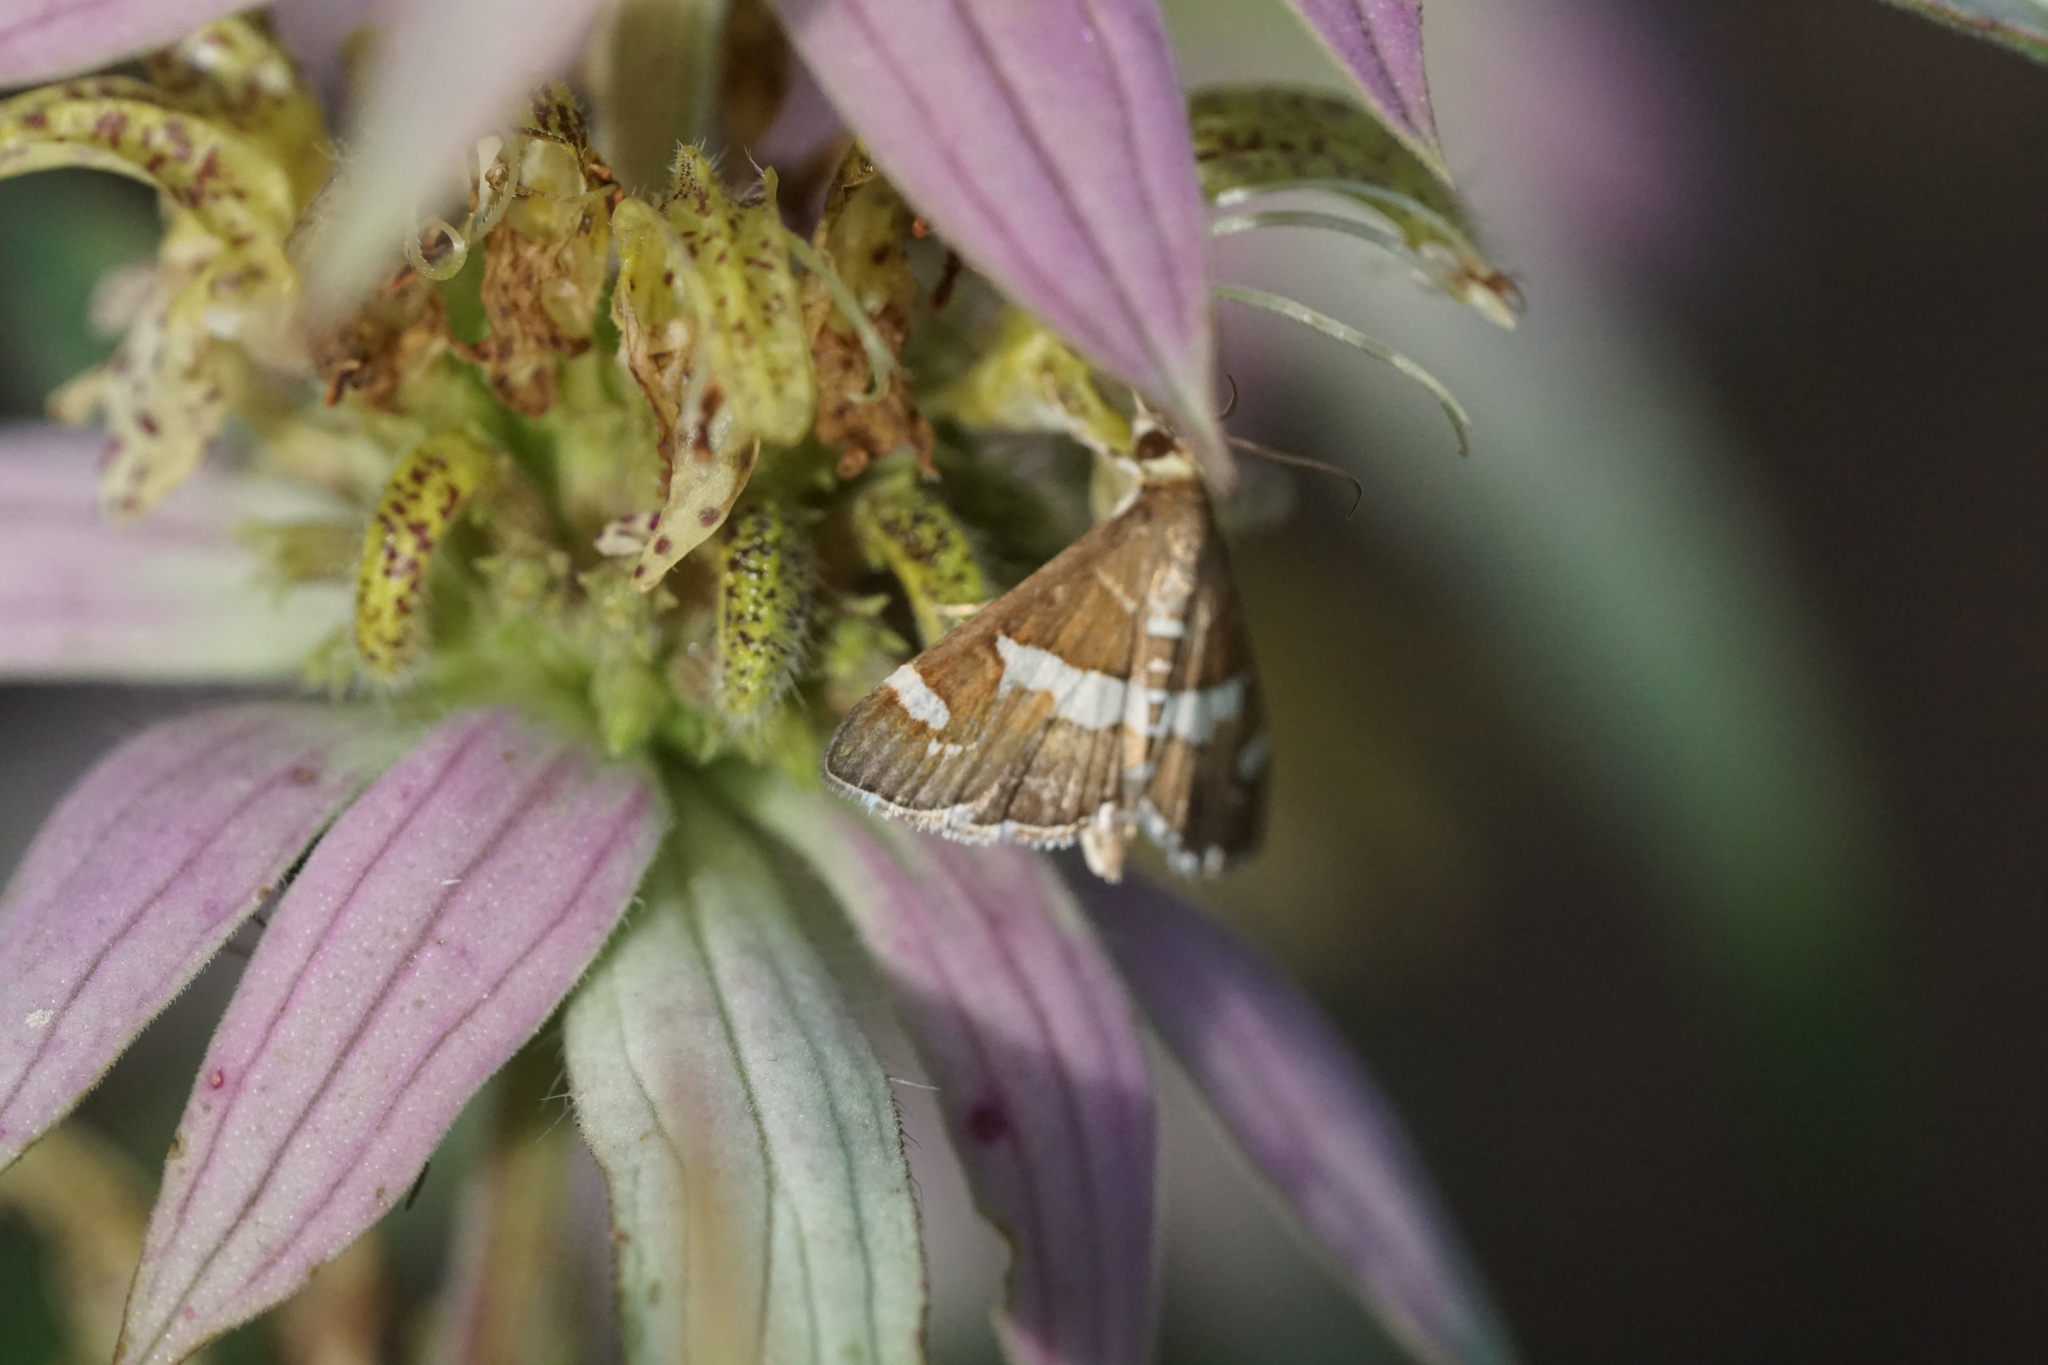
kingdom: Animalia
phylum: Arthropoda
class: Insecta
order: Lepidoptera
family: Crambidae
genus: Spoladea
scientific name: Spoladea recurvalis
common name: Beet webworm moth
